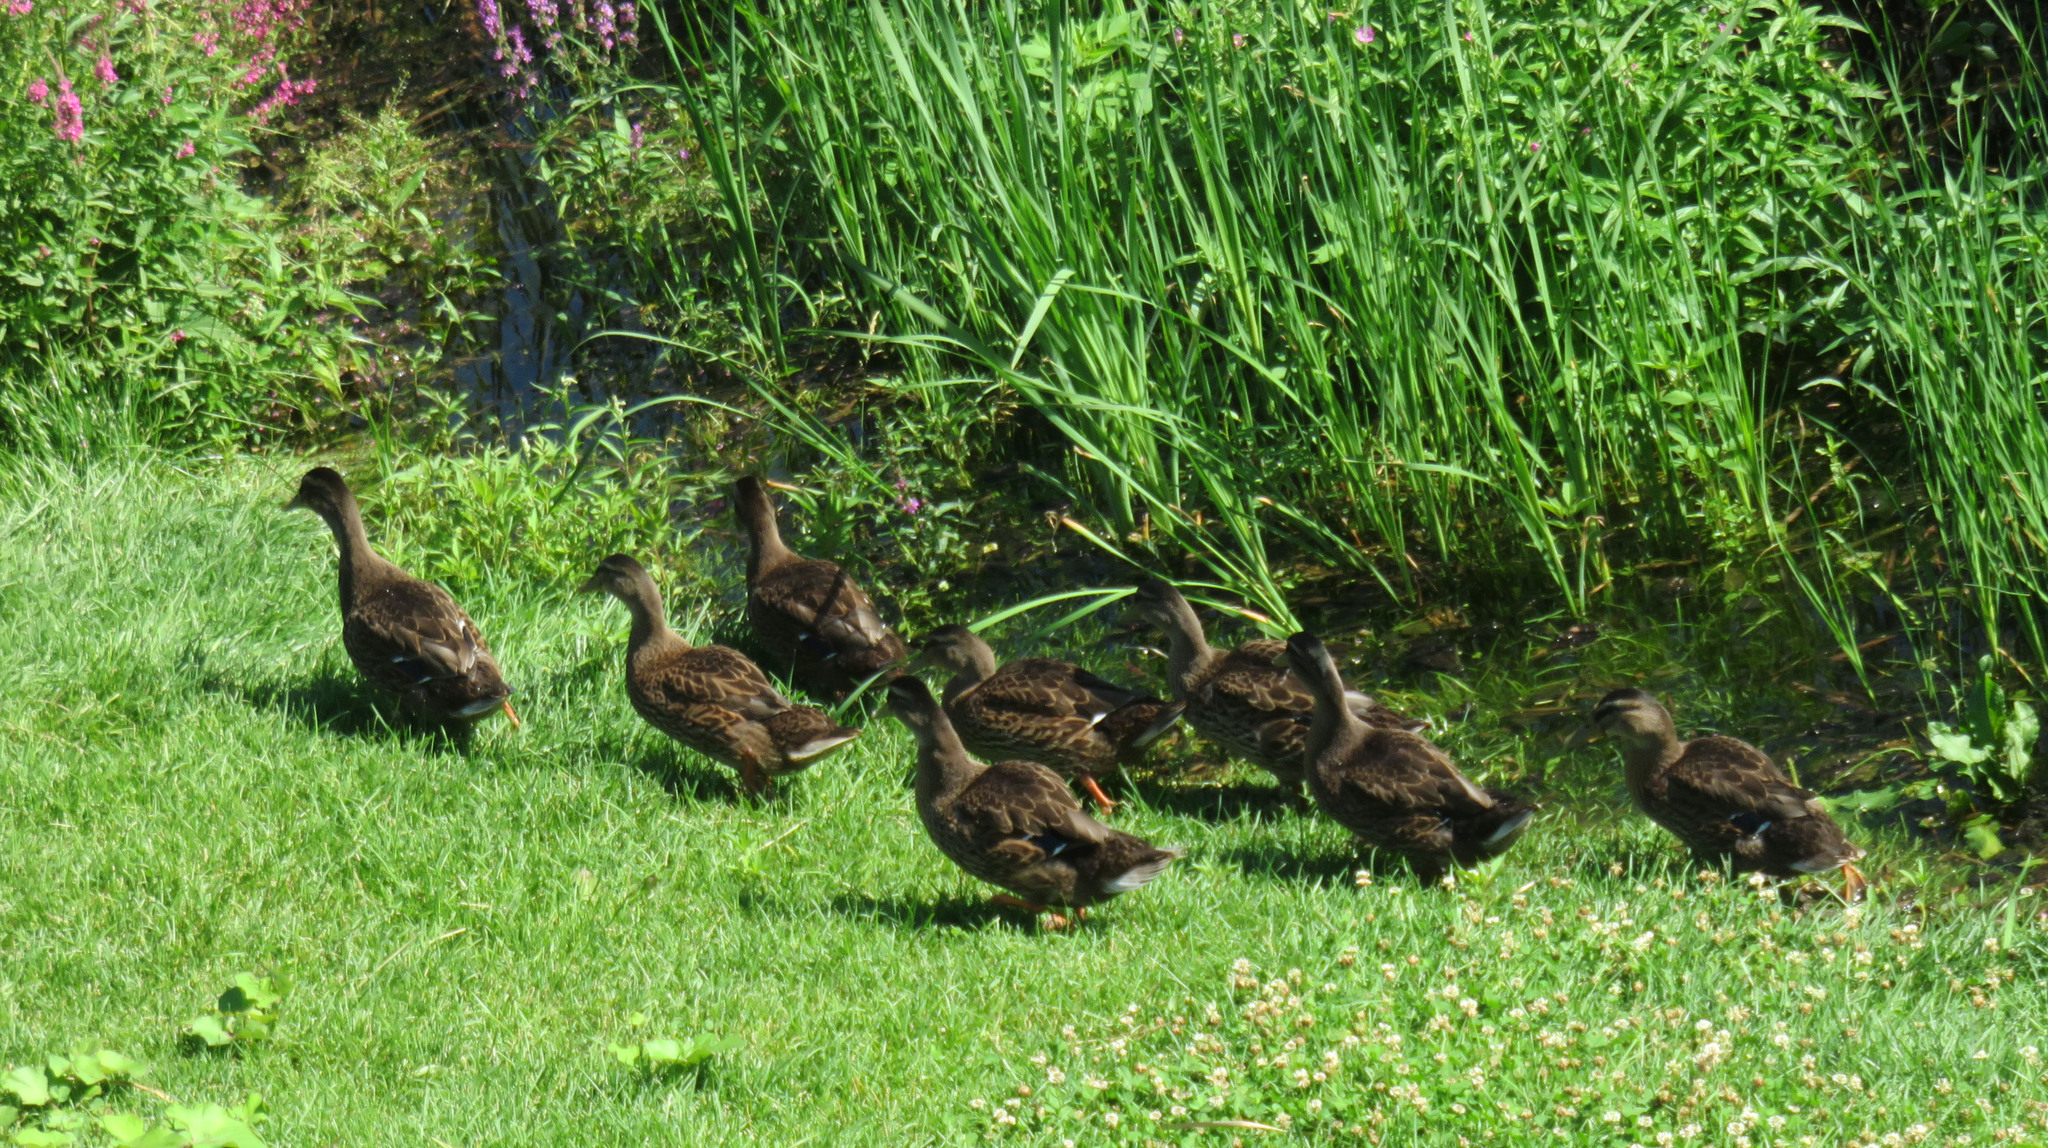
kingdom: Animalia
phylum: Chordata
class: Aves
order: Anseriformes
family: Anatidae
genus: Anas
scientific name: Anas platyrhynchos
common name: Mallard
